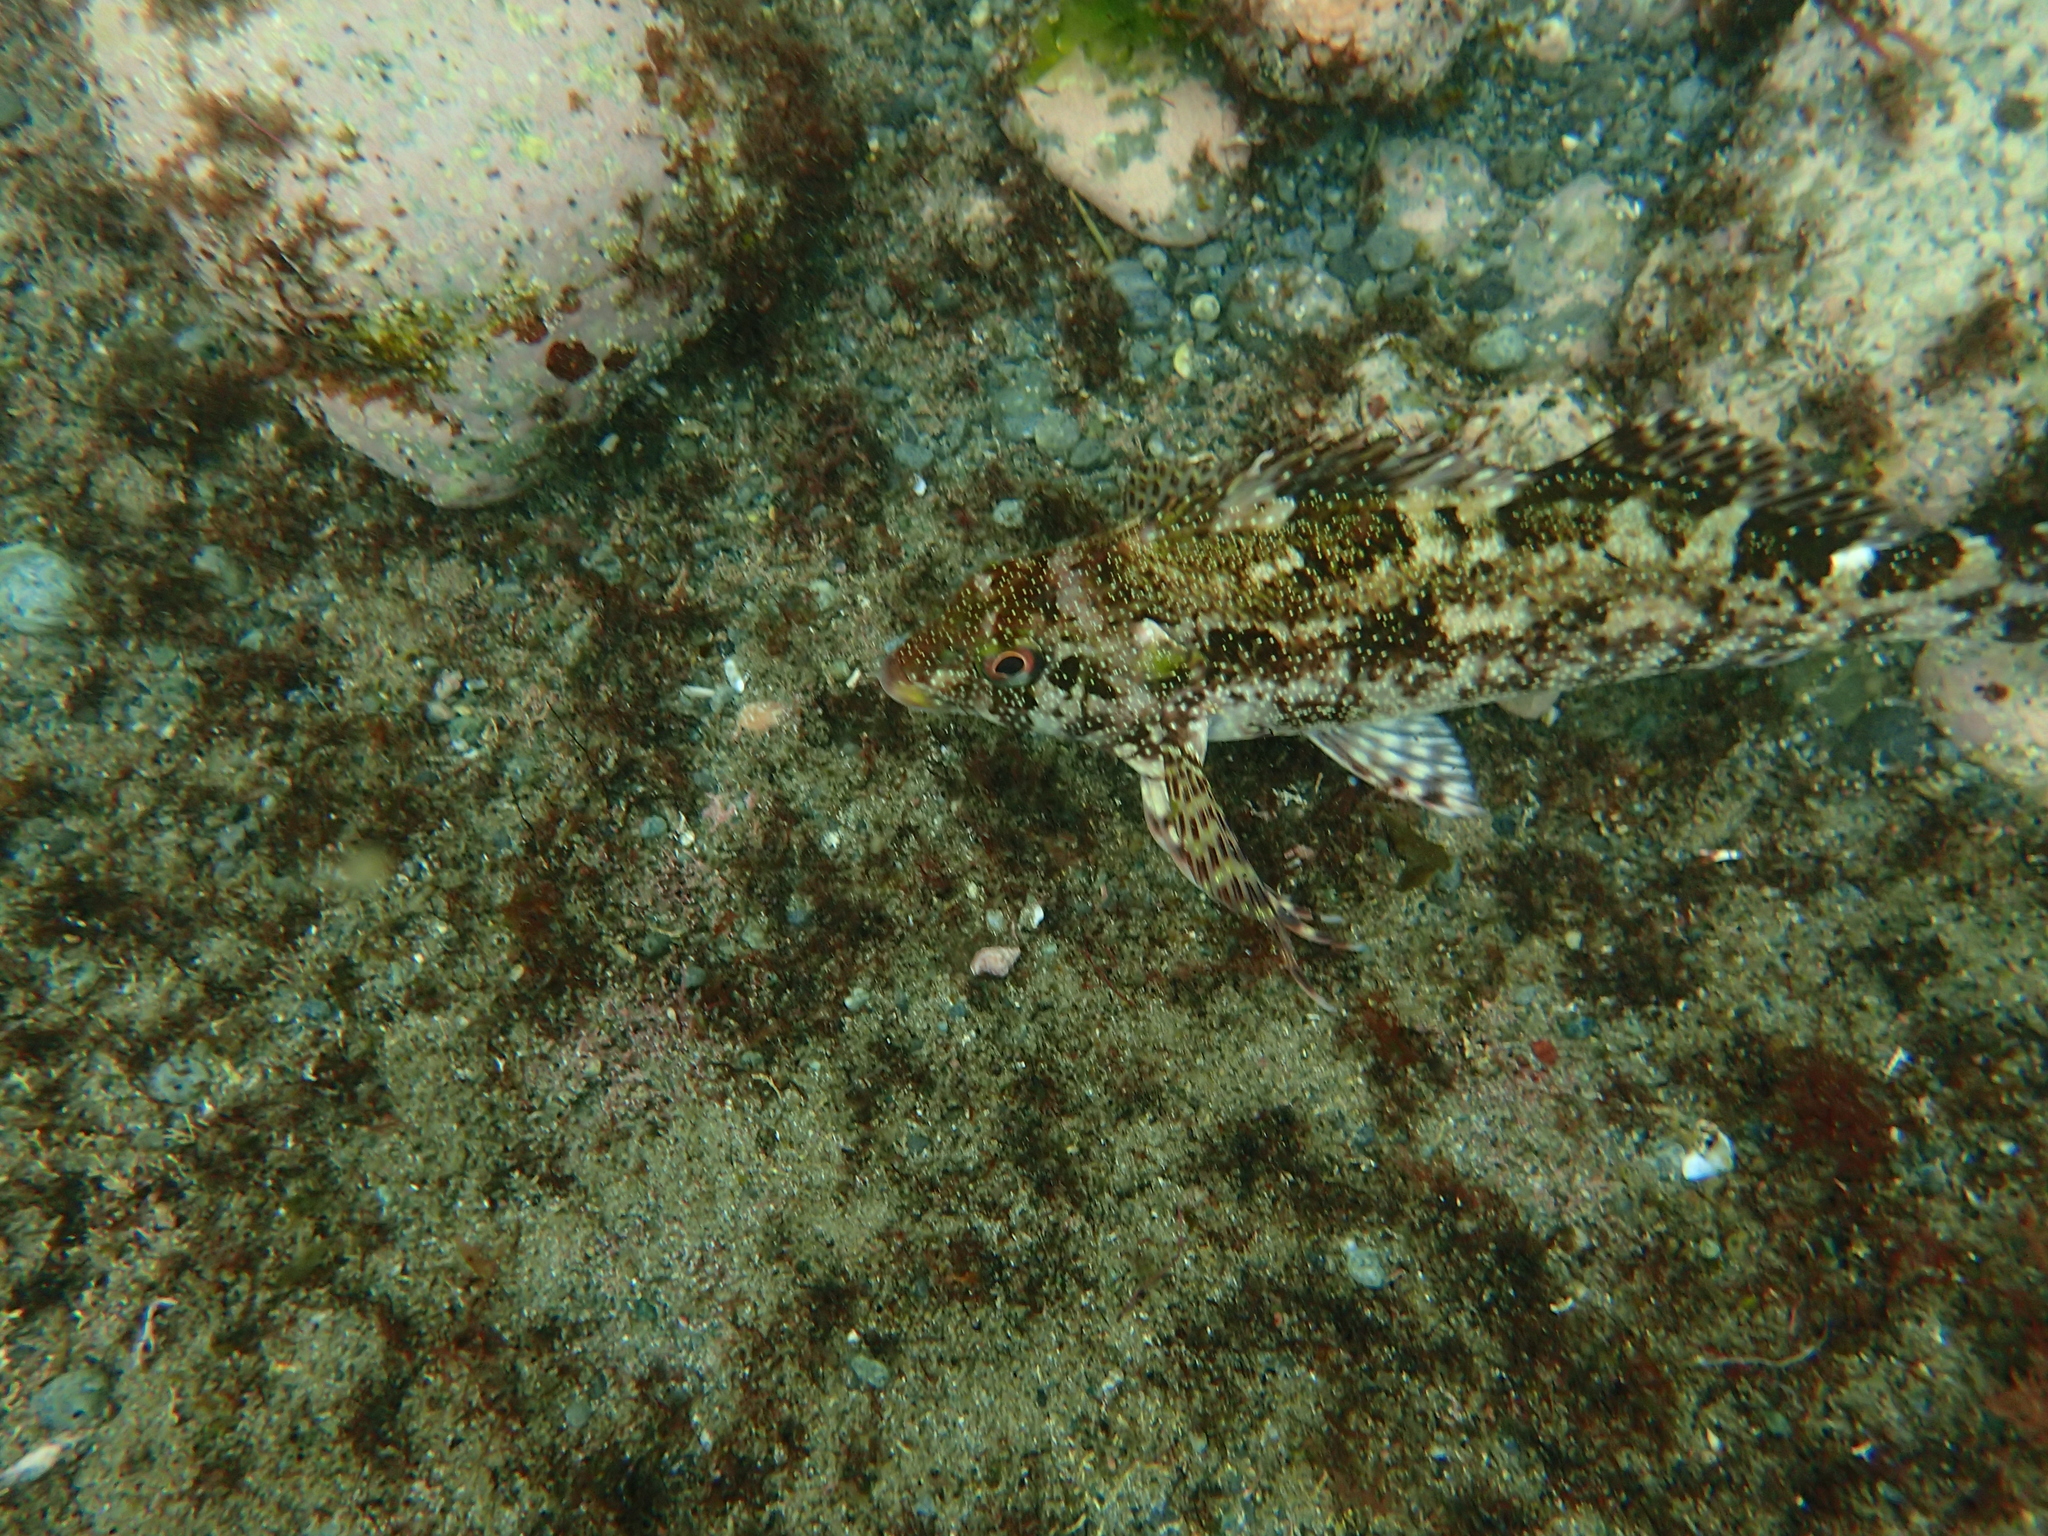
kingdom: Animalia
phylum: Chordata
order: Perciformes
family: Chironemidae
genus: Chironemus
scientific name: Chironemus marmoratus
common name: Kelpfish
